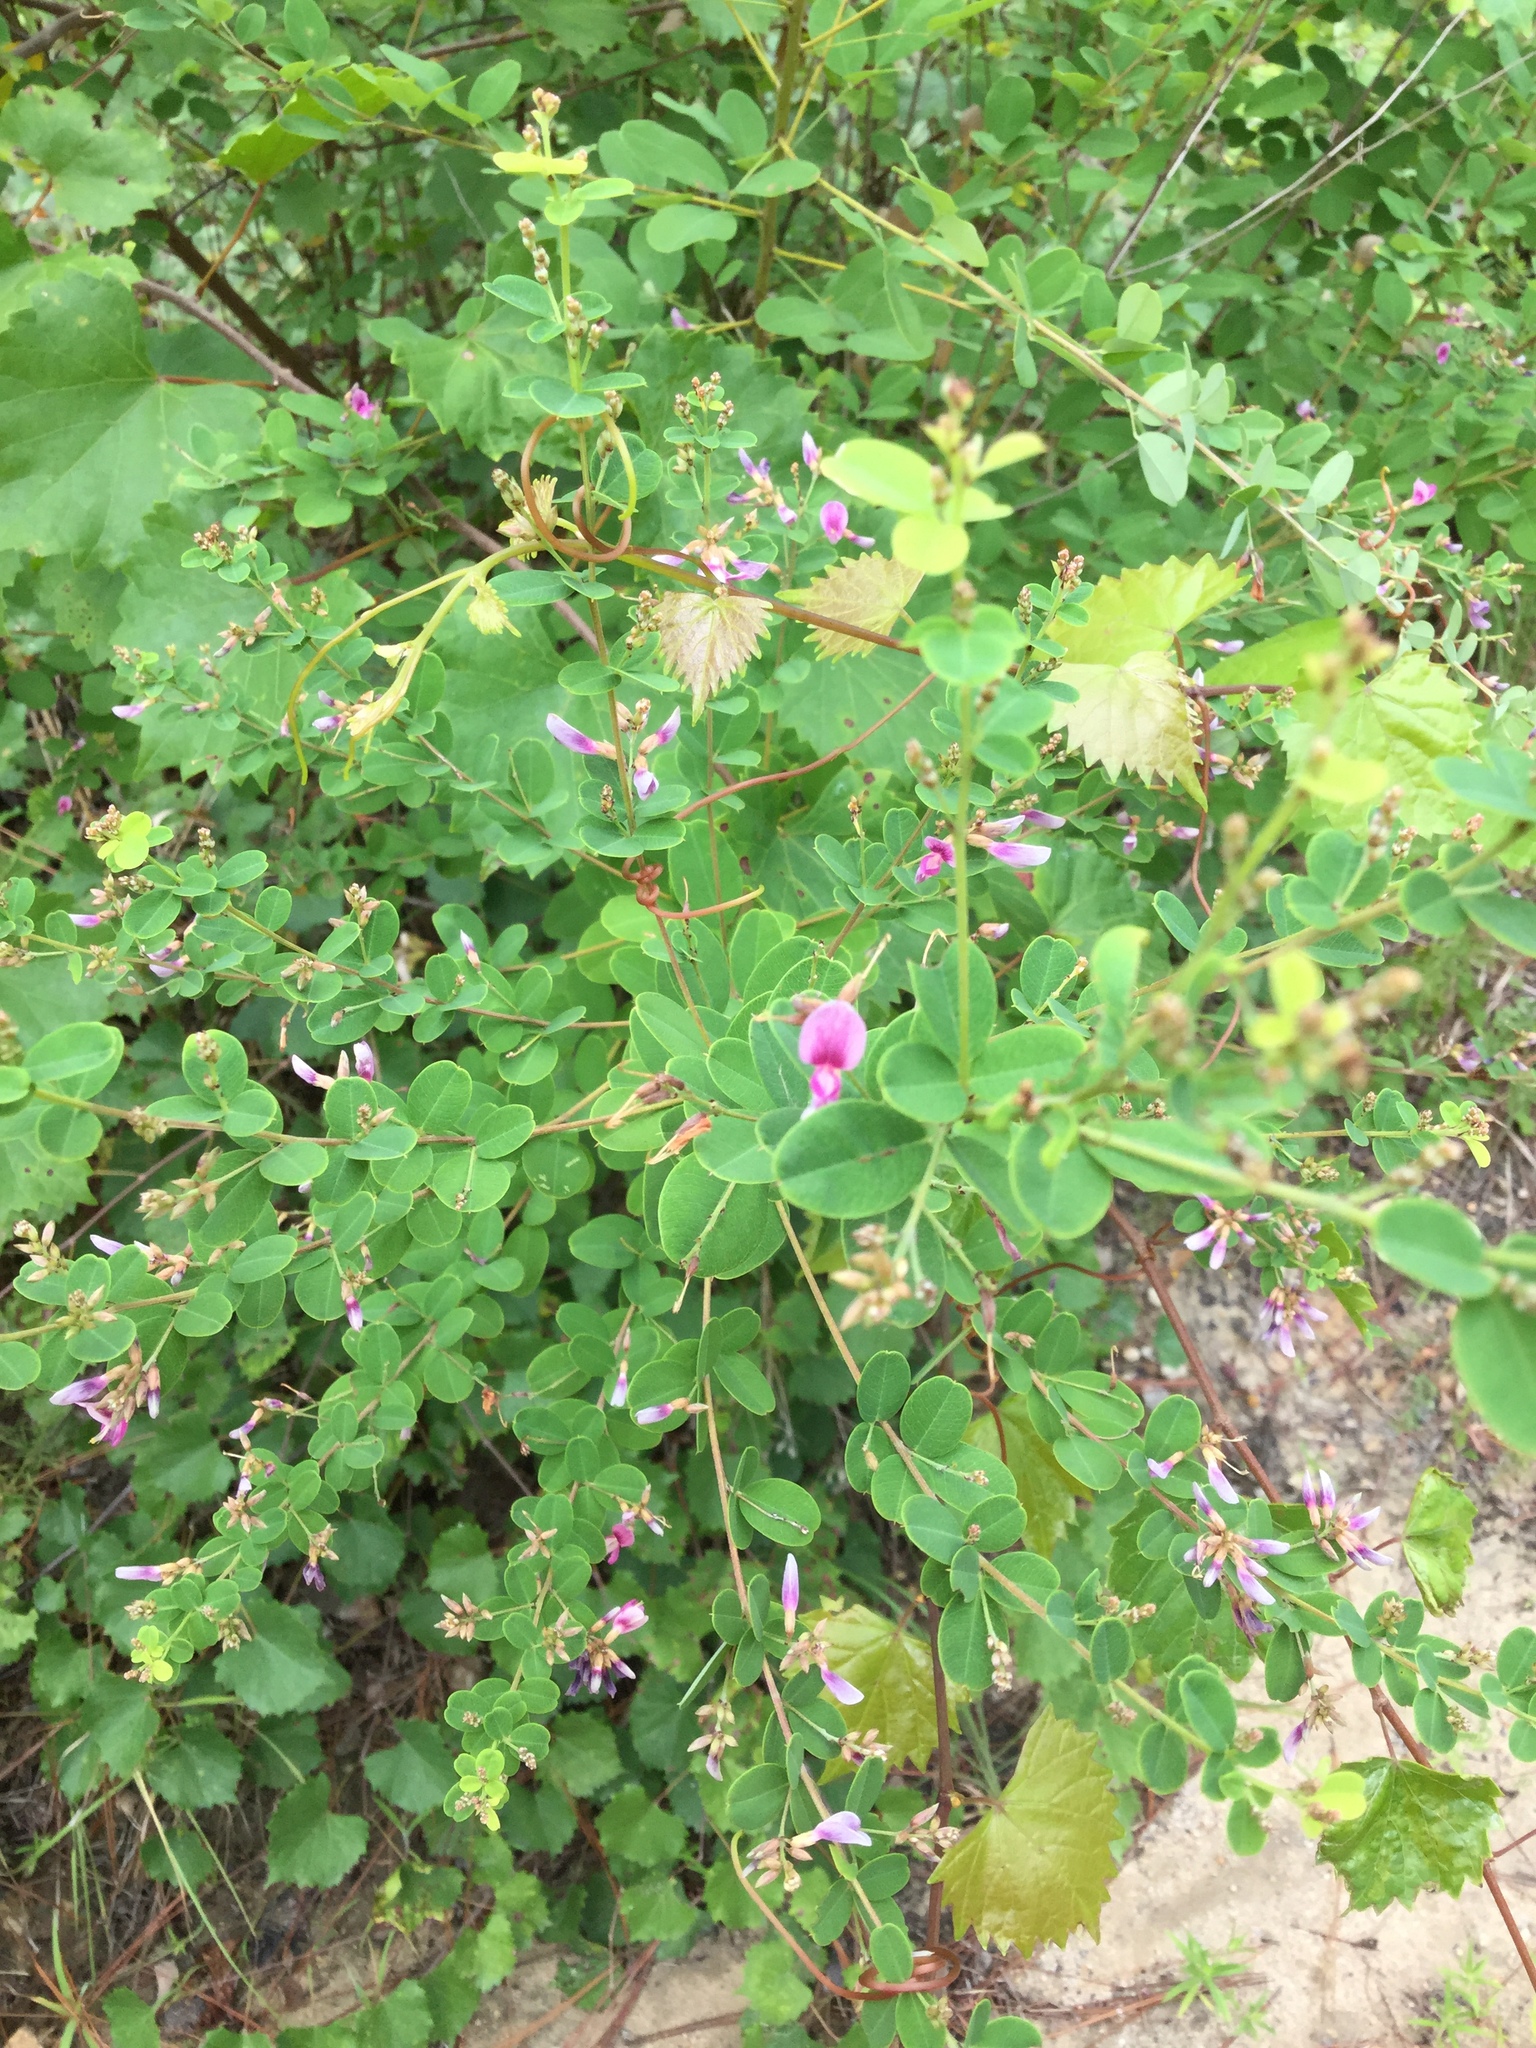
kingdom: Plantae
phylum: Tracheophyta
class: Magnoliopsida
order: Fabales
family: Fabaceae
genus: Lespedeza
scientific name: Lespedeza bicolor
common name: Shrub lespedeza
